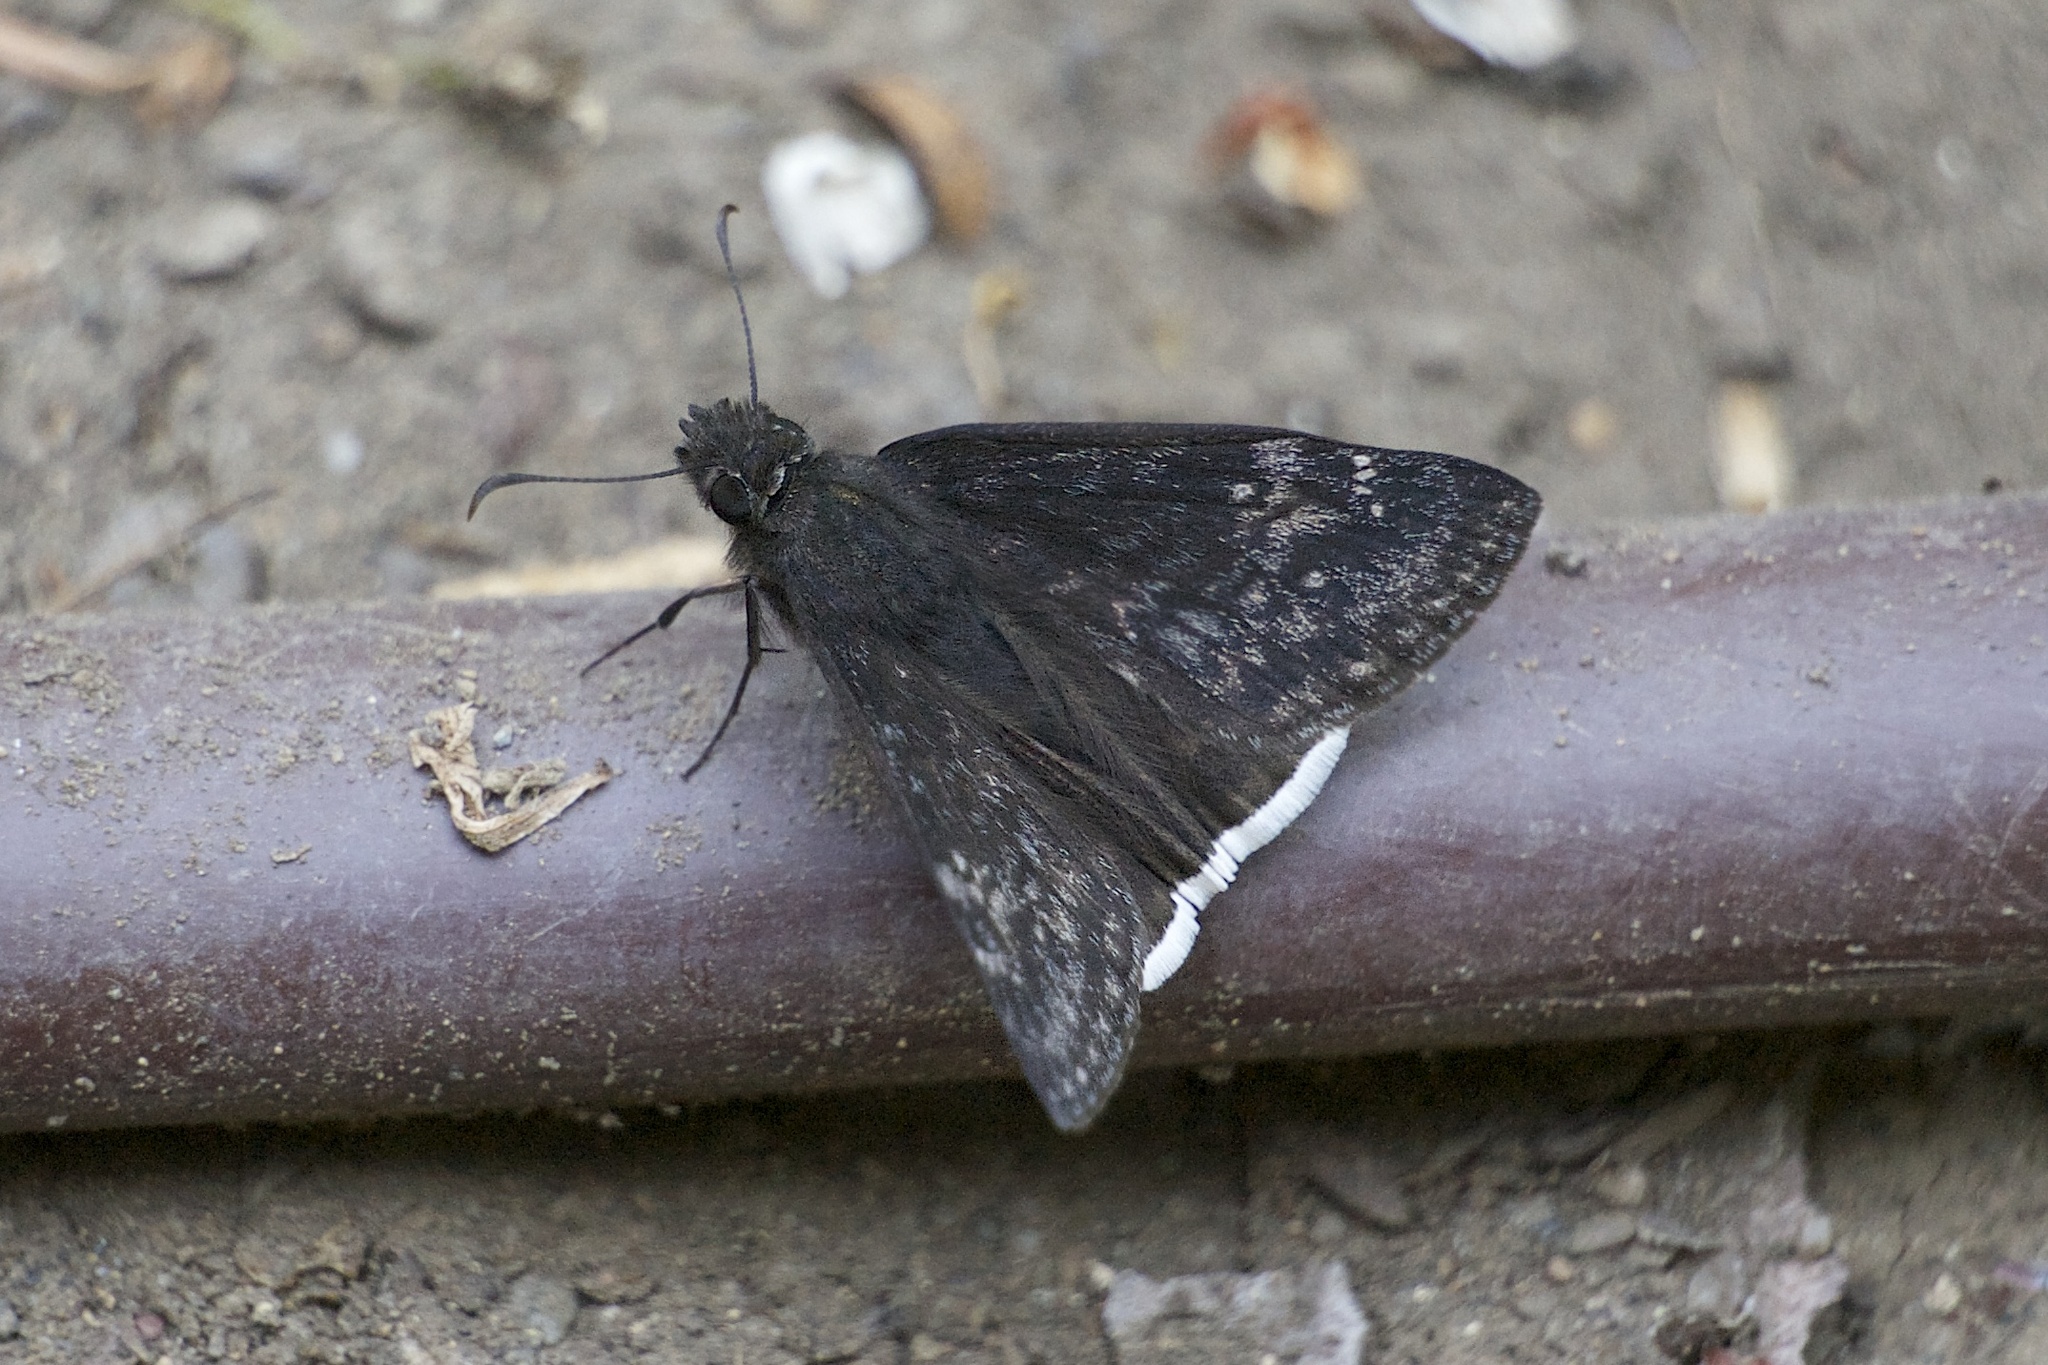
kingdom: Animalia
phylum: Arthropoda
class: Insecta
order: Lepidoptera
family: Hesperiidae
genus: Erynnis
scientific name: Erynnis tristis
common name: Mournful duskywing
